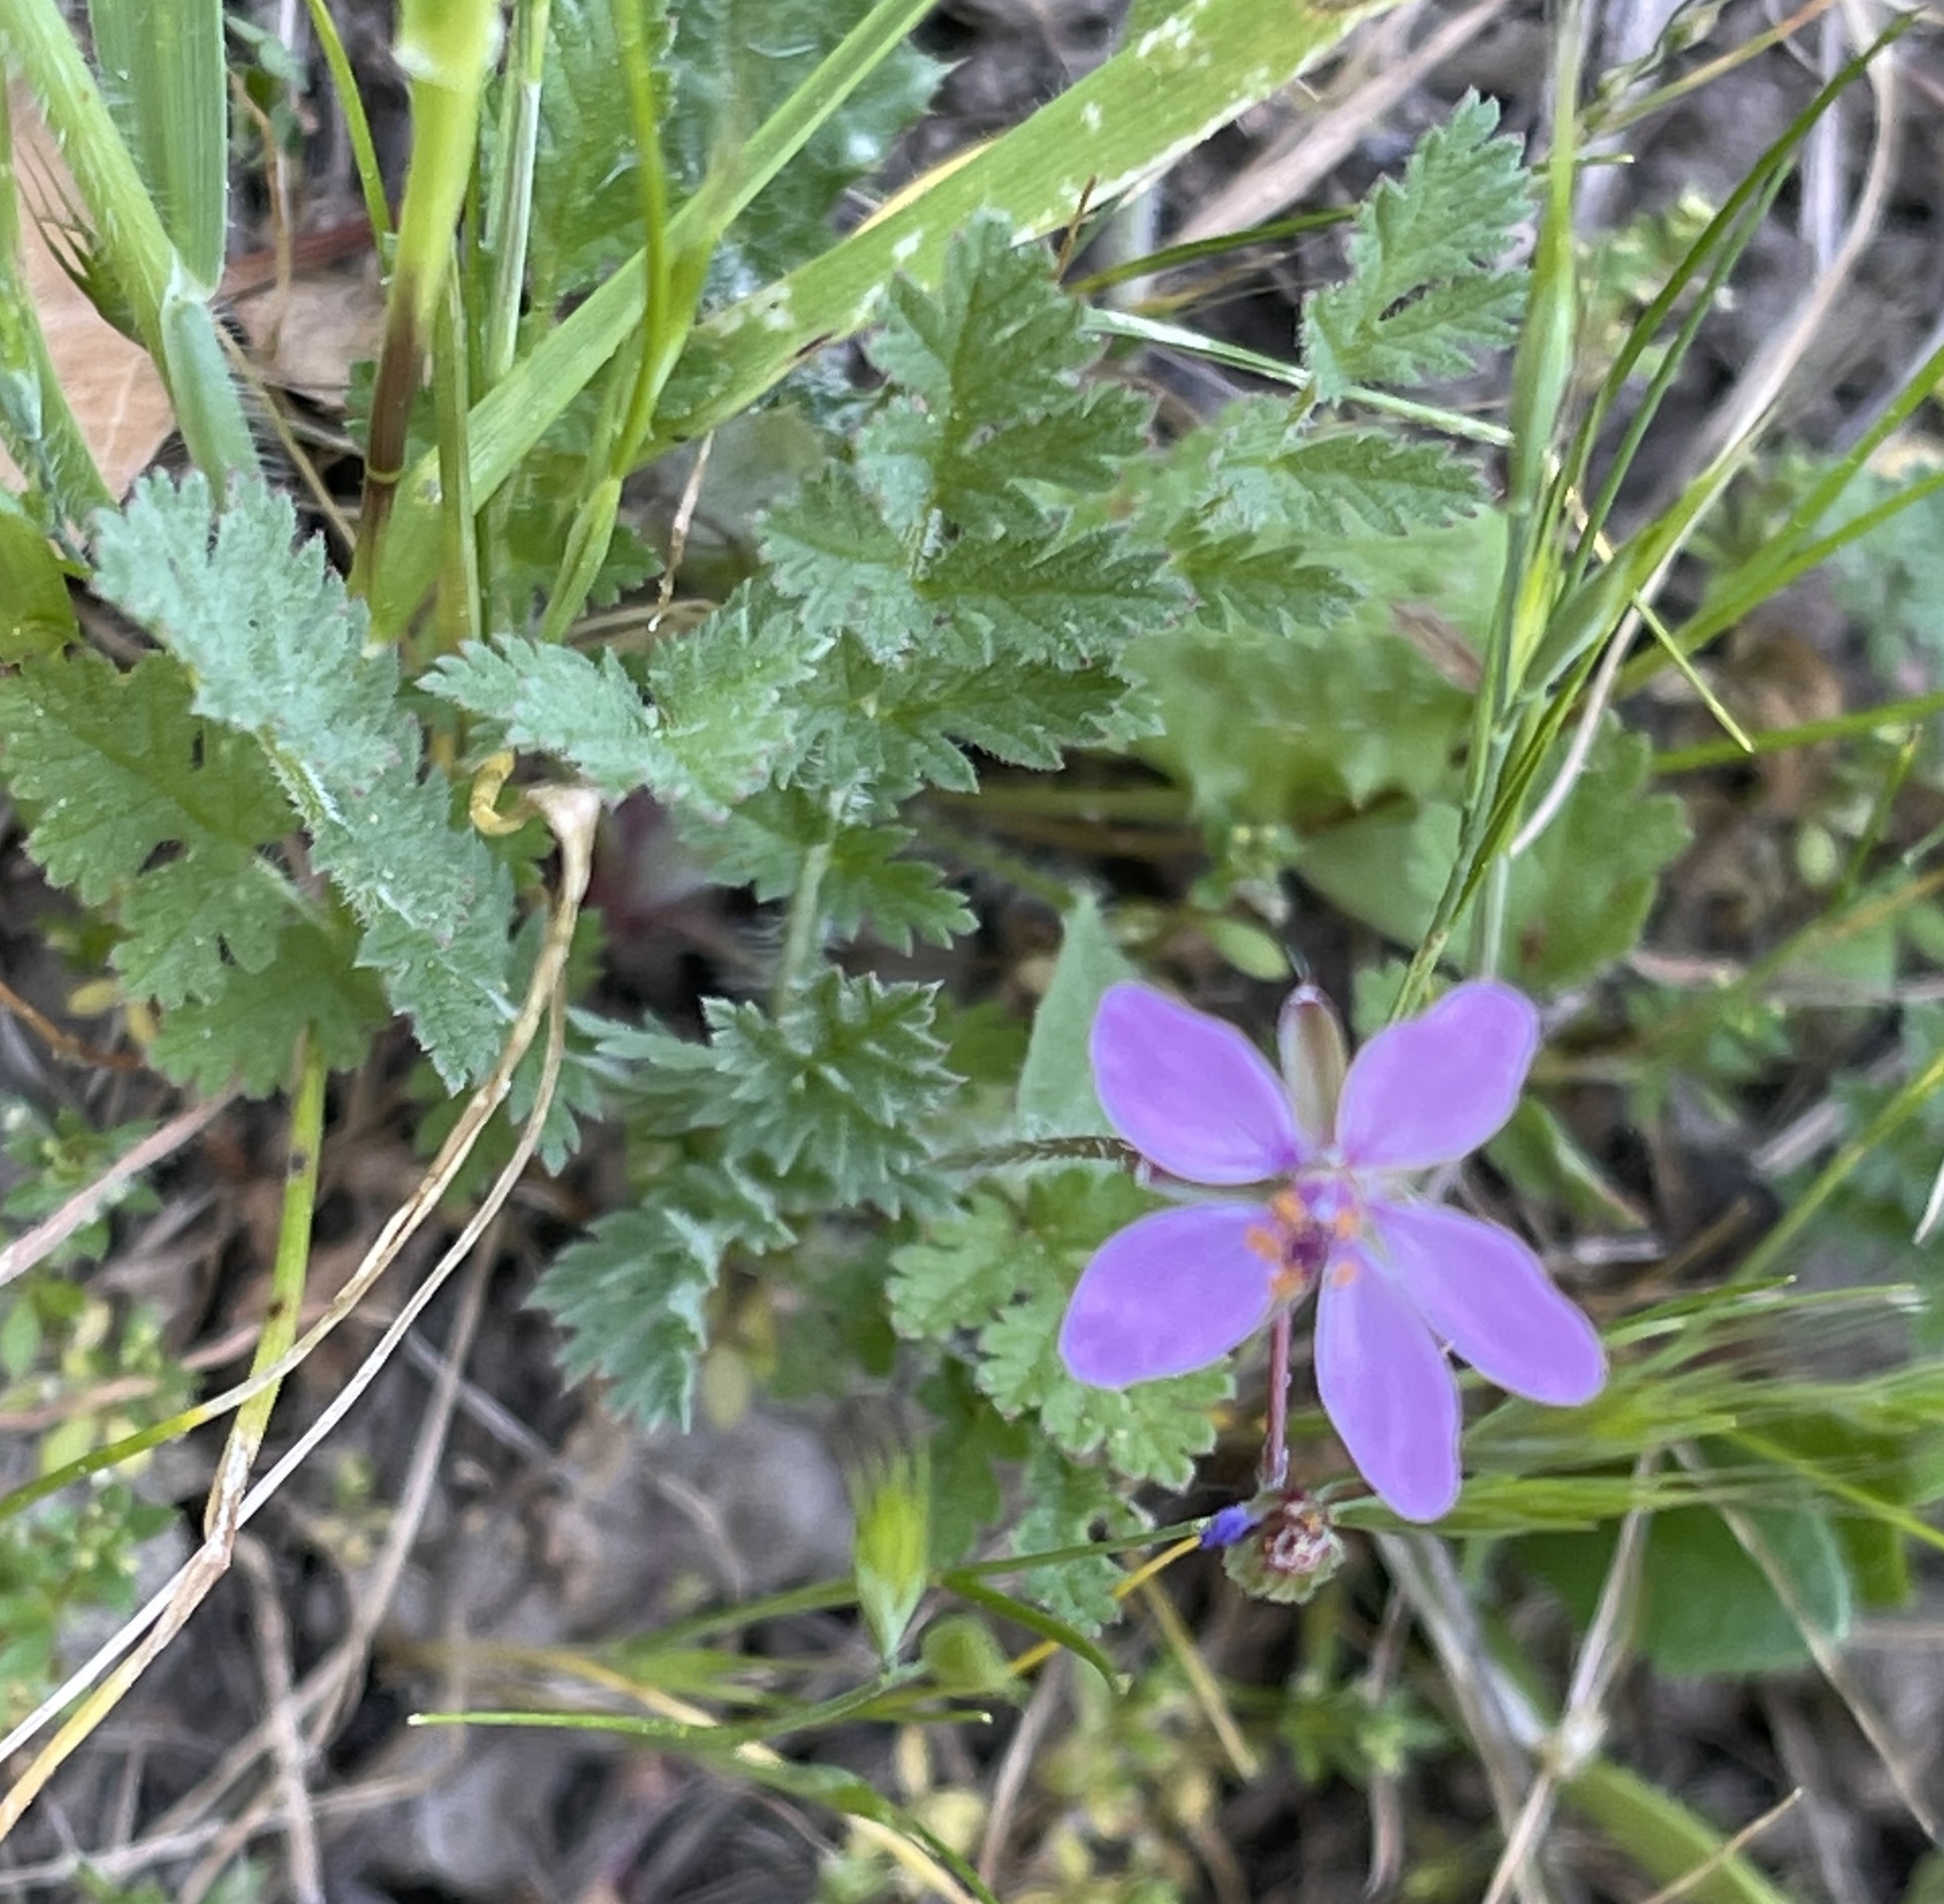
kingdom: Plantae
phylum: Tracheophyta
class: Magnoliopsida
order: Geraniales
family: Geraniaceae
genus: Erodium
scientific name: Erodium cicutarium
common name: Common stork's-bill
